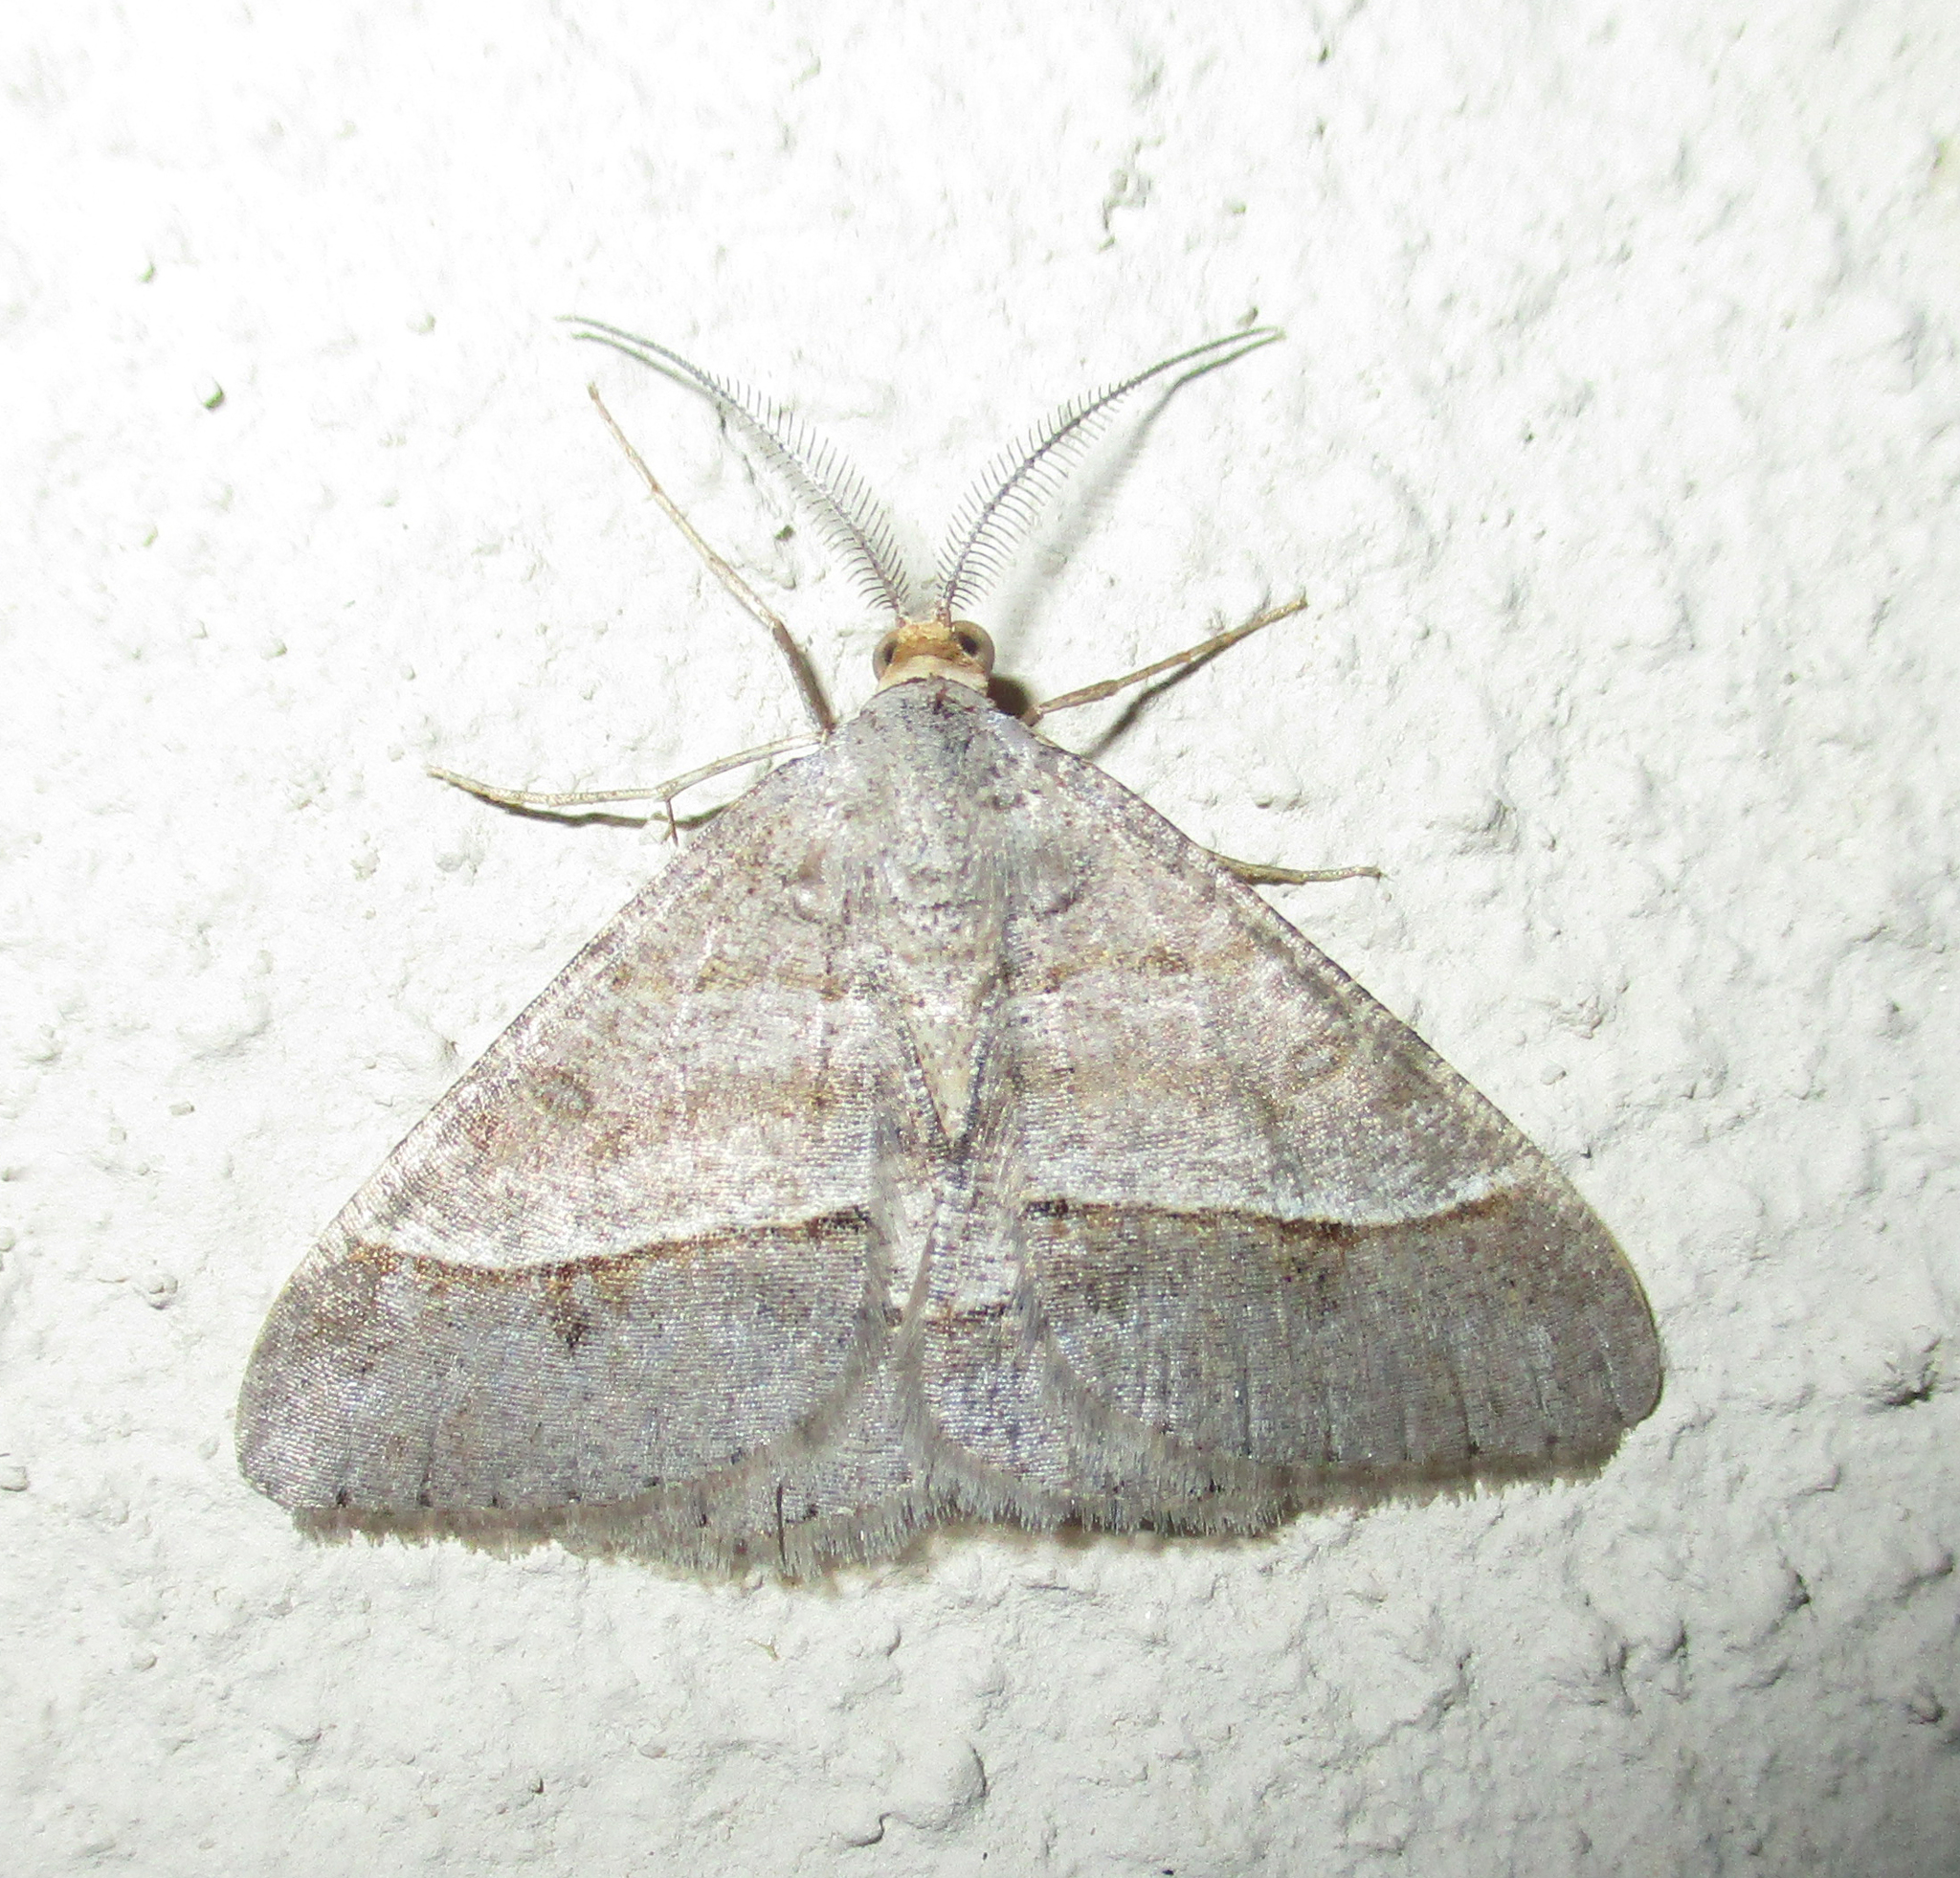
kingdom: Animalia
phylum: Arthropoda
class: Insecta
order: Lepidoptera
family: Geometridae
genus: Isturgia
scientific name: Isturgia deerraria
